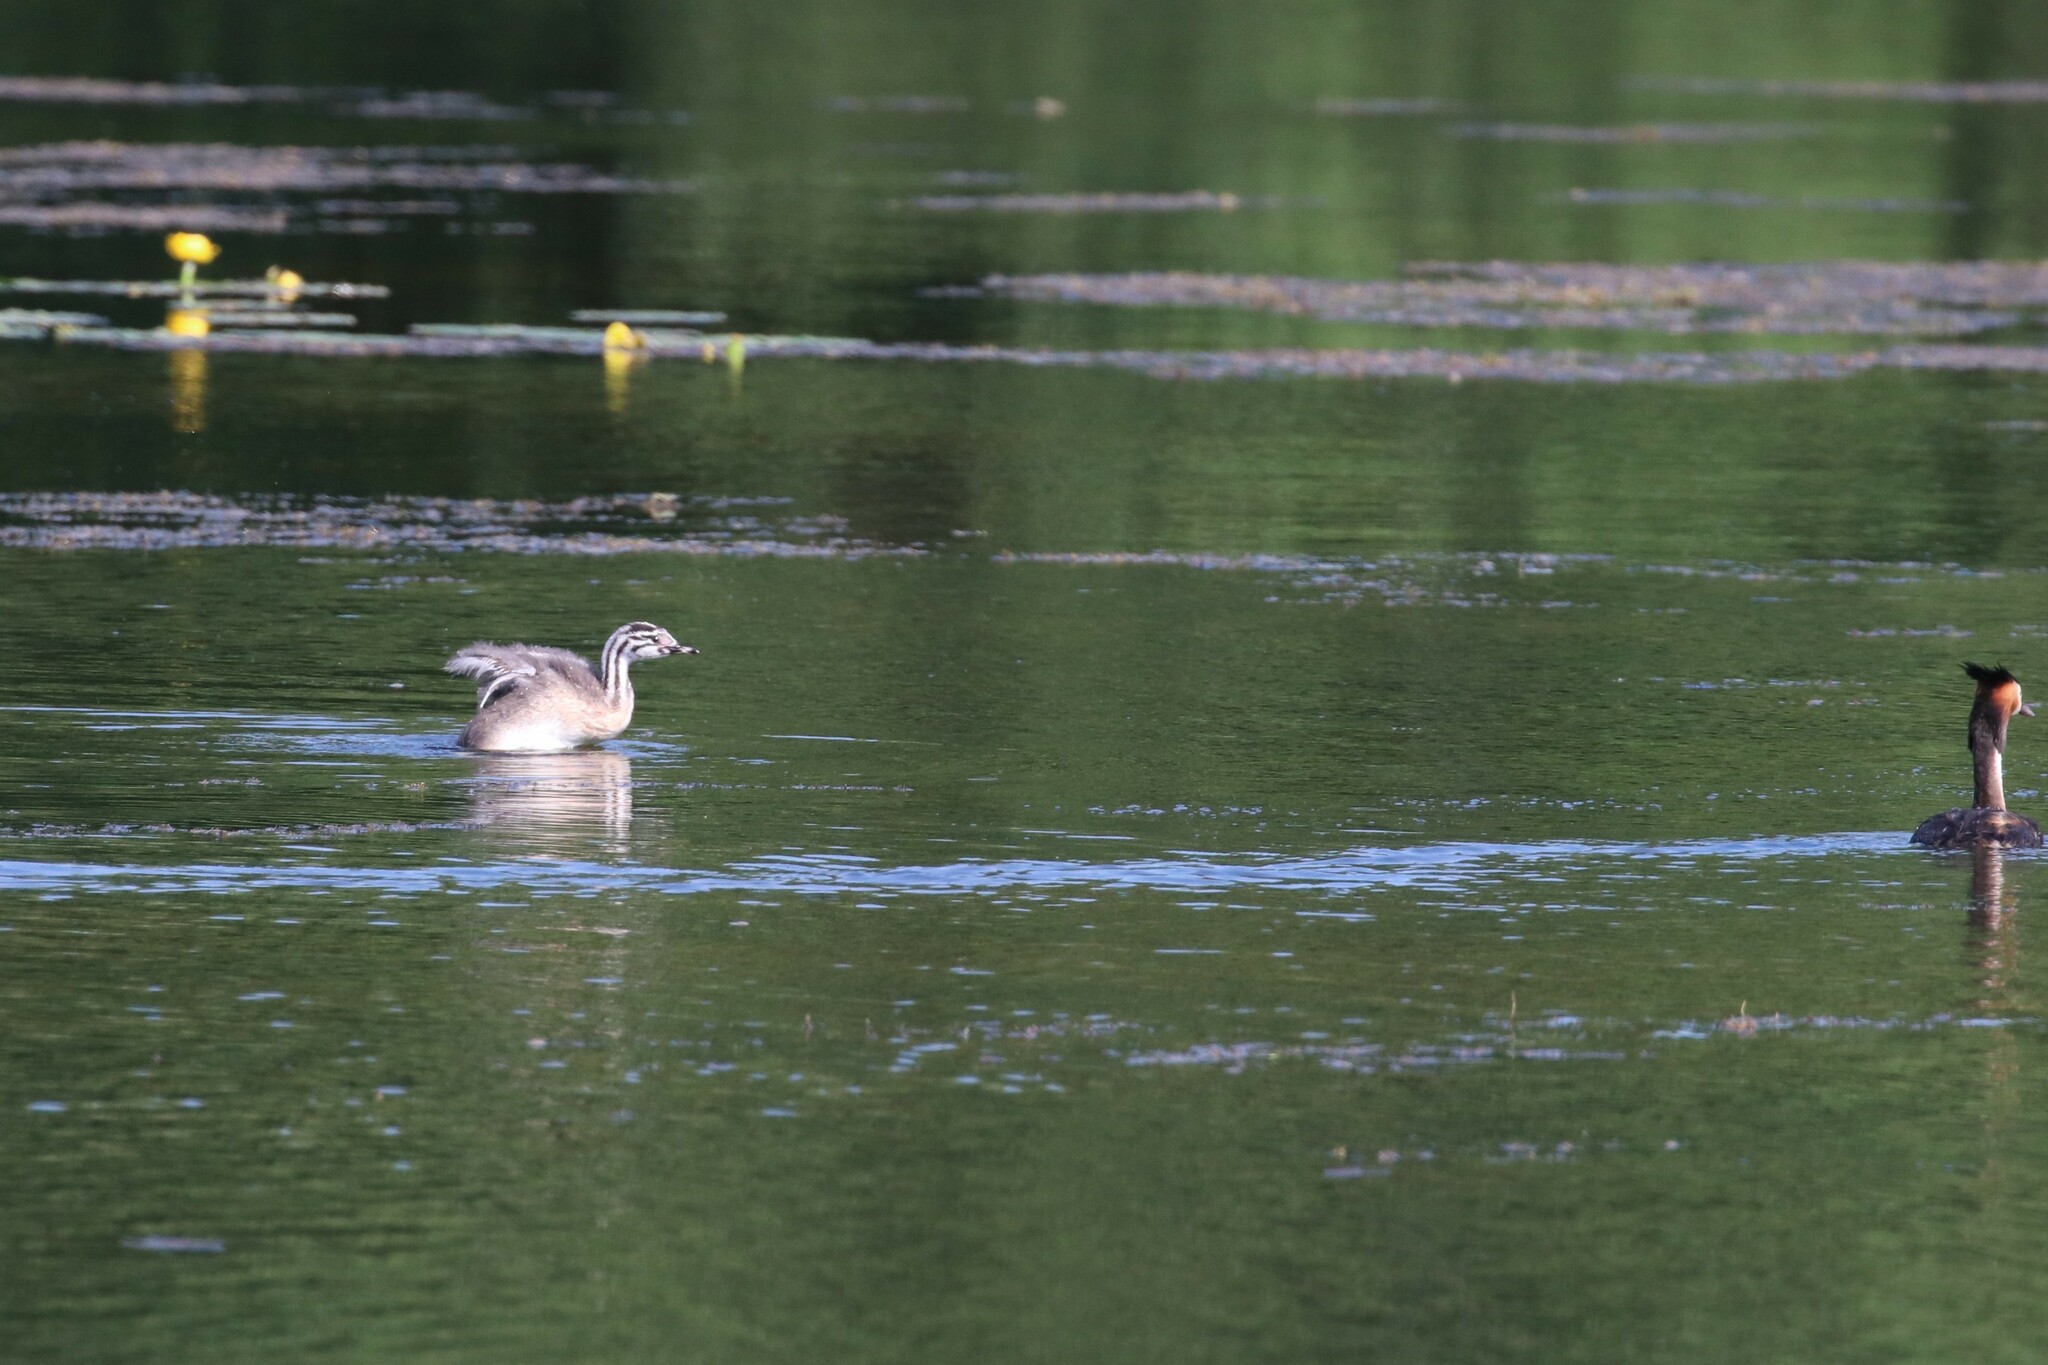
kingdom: Animalia
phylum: Chordata
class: Aves
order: Podicipediformes
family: Podicipedidae
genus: Podiceps
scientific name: Podiceps cristatus
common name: Great crested grebe
